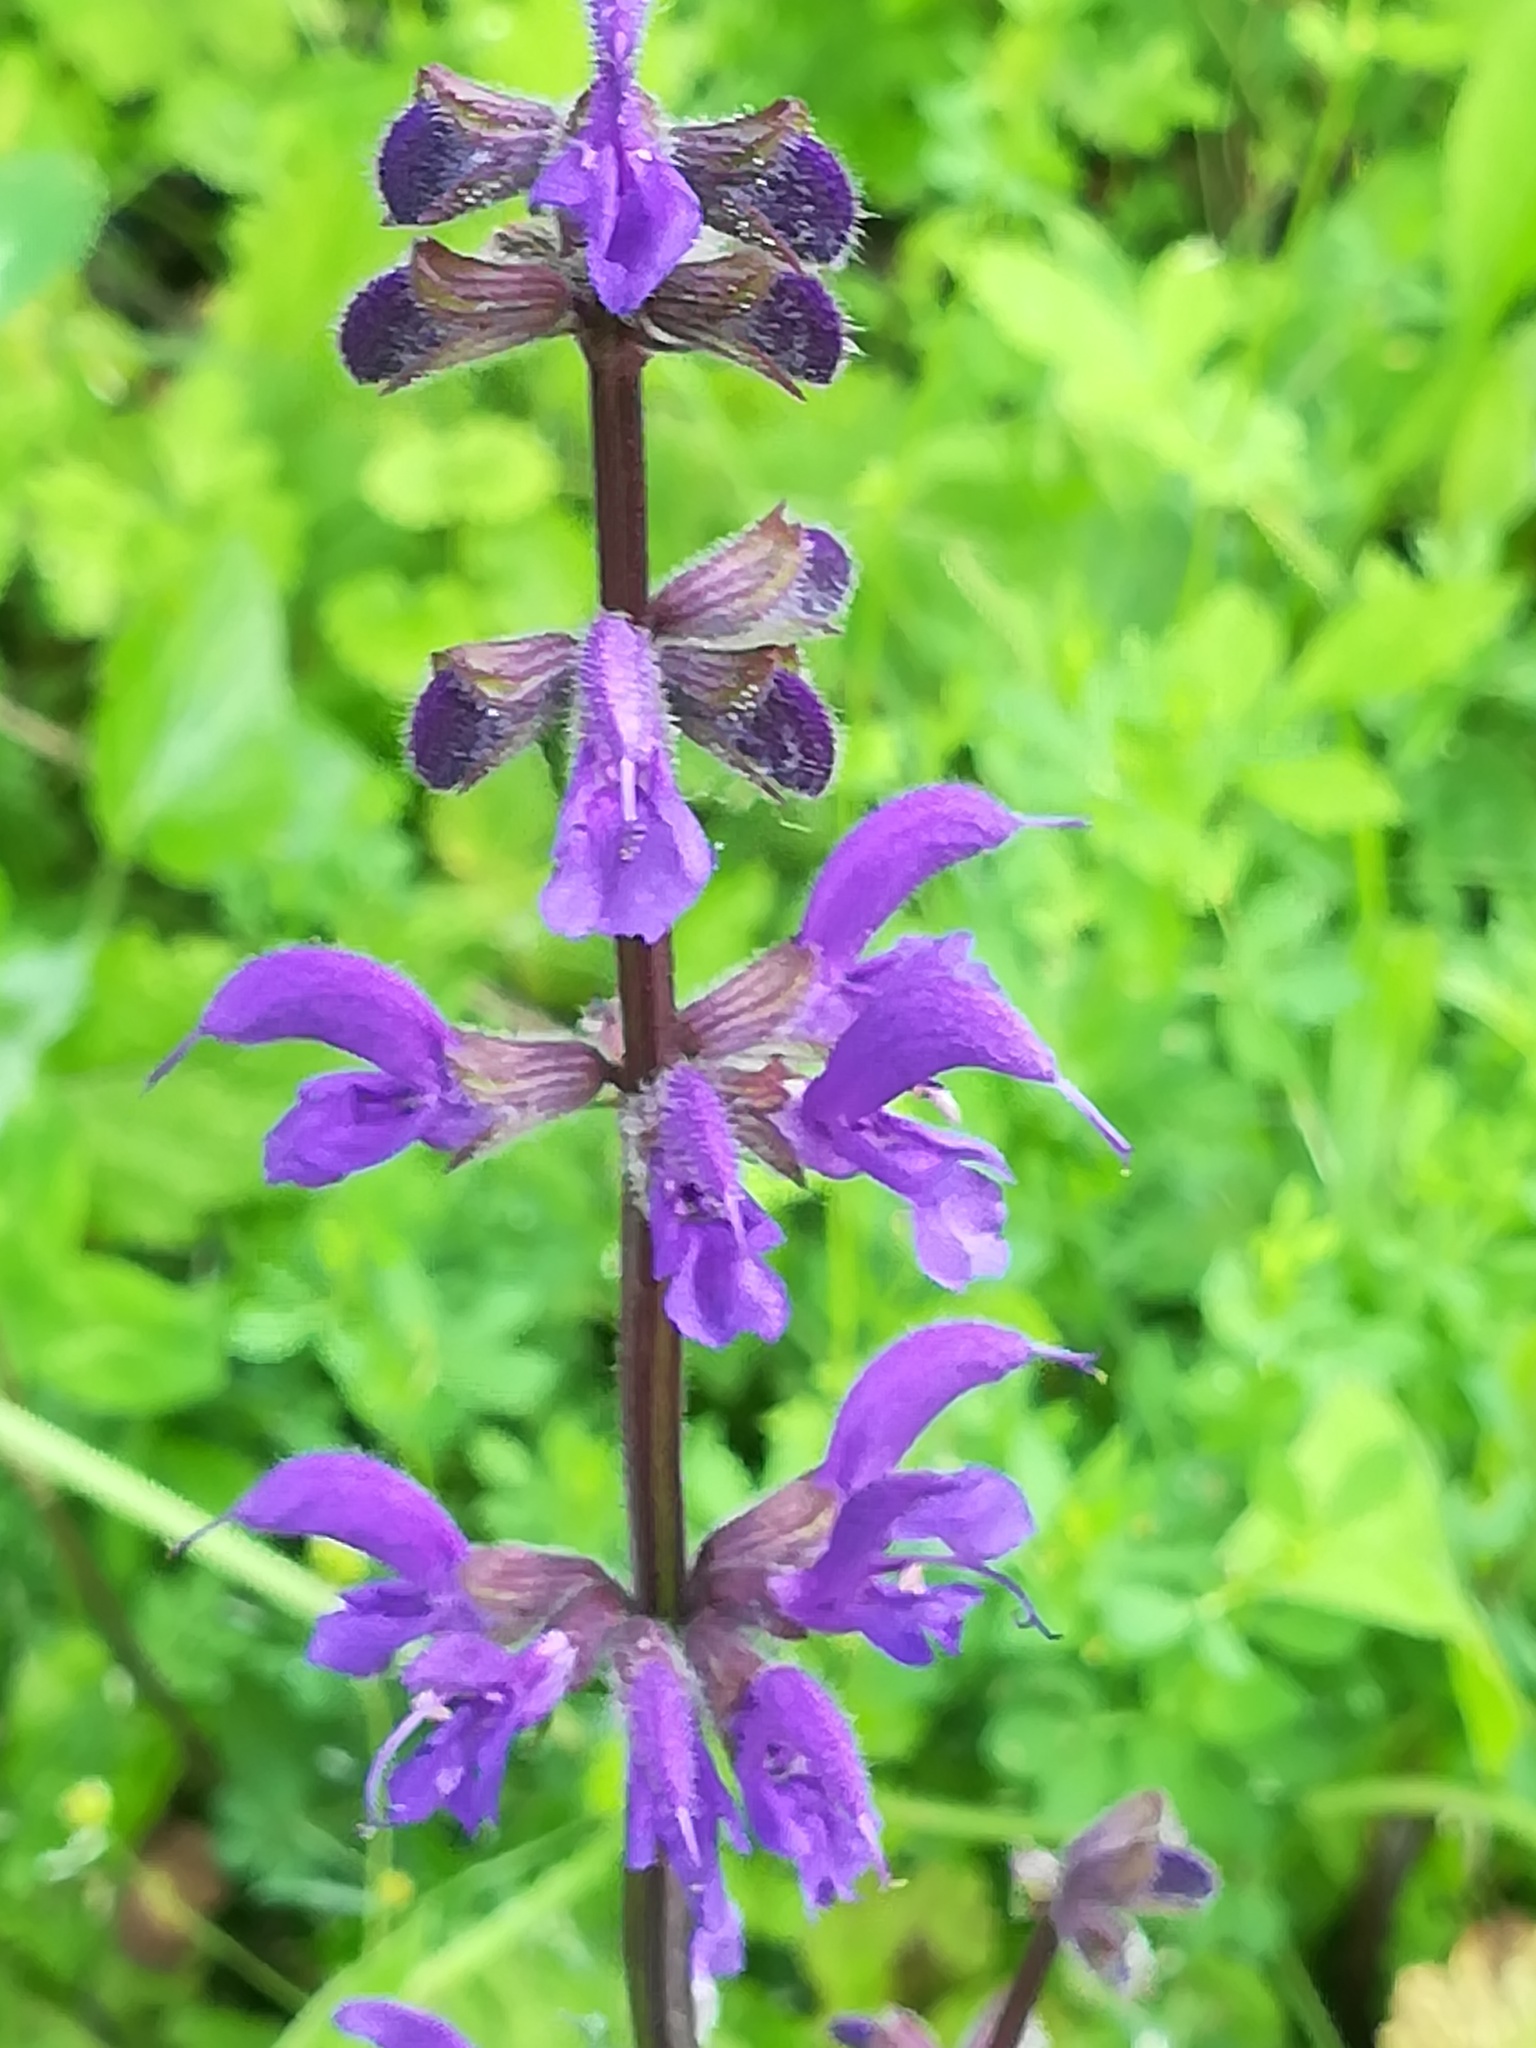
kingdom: Plantae
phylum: Tracheophyta
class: Magnoliopsida
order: Lamiales
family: Lamiaceae
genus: Salvia
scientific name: Salvia pratensis
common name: Meadow sage
